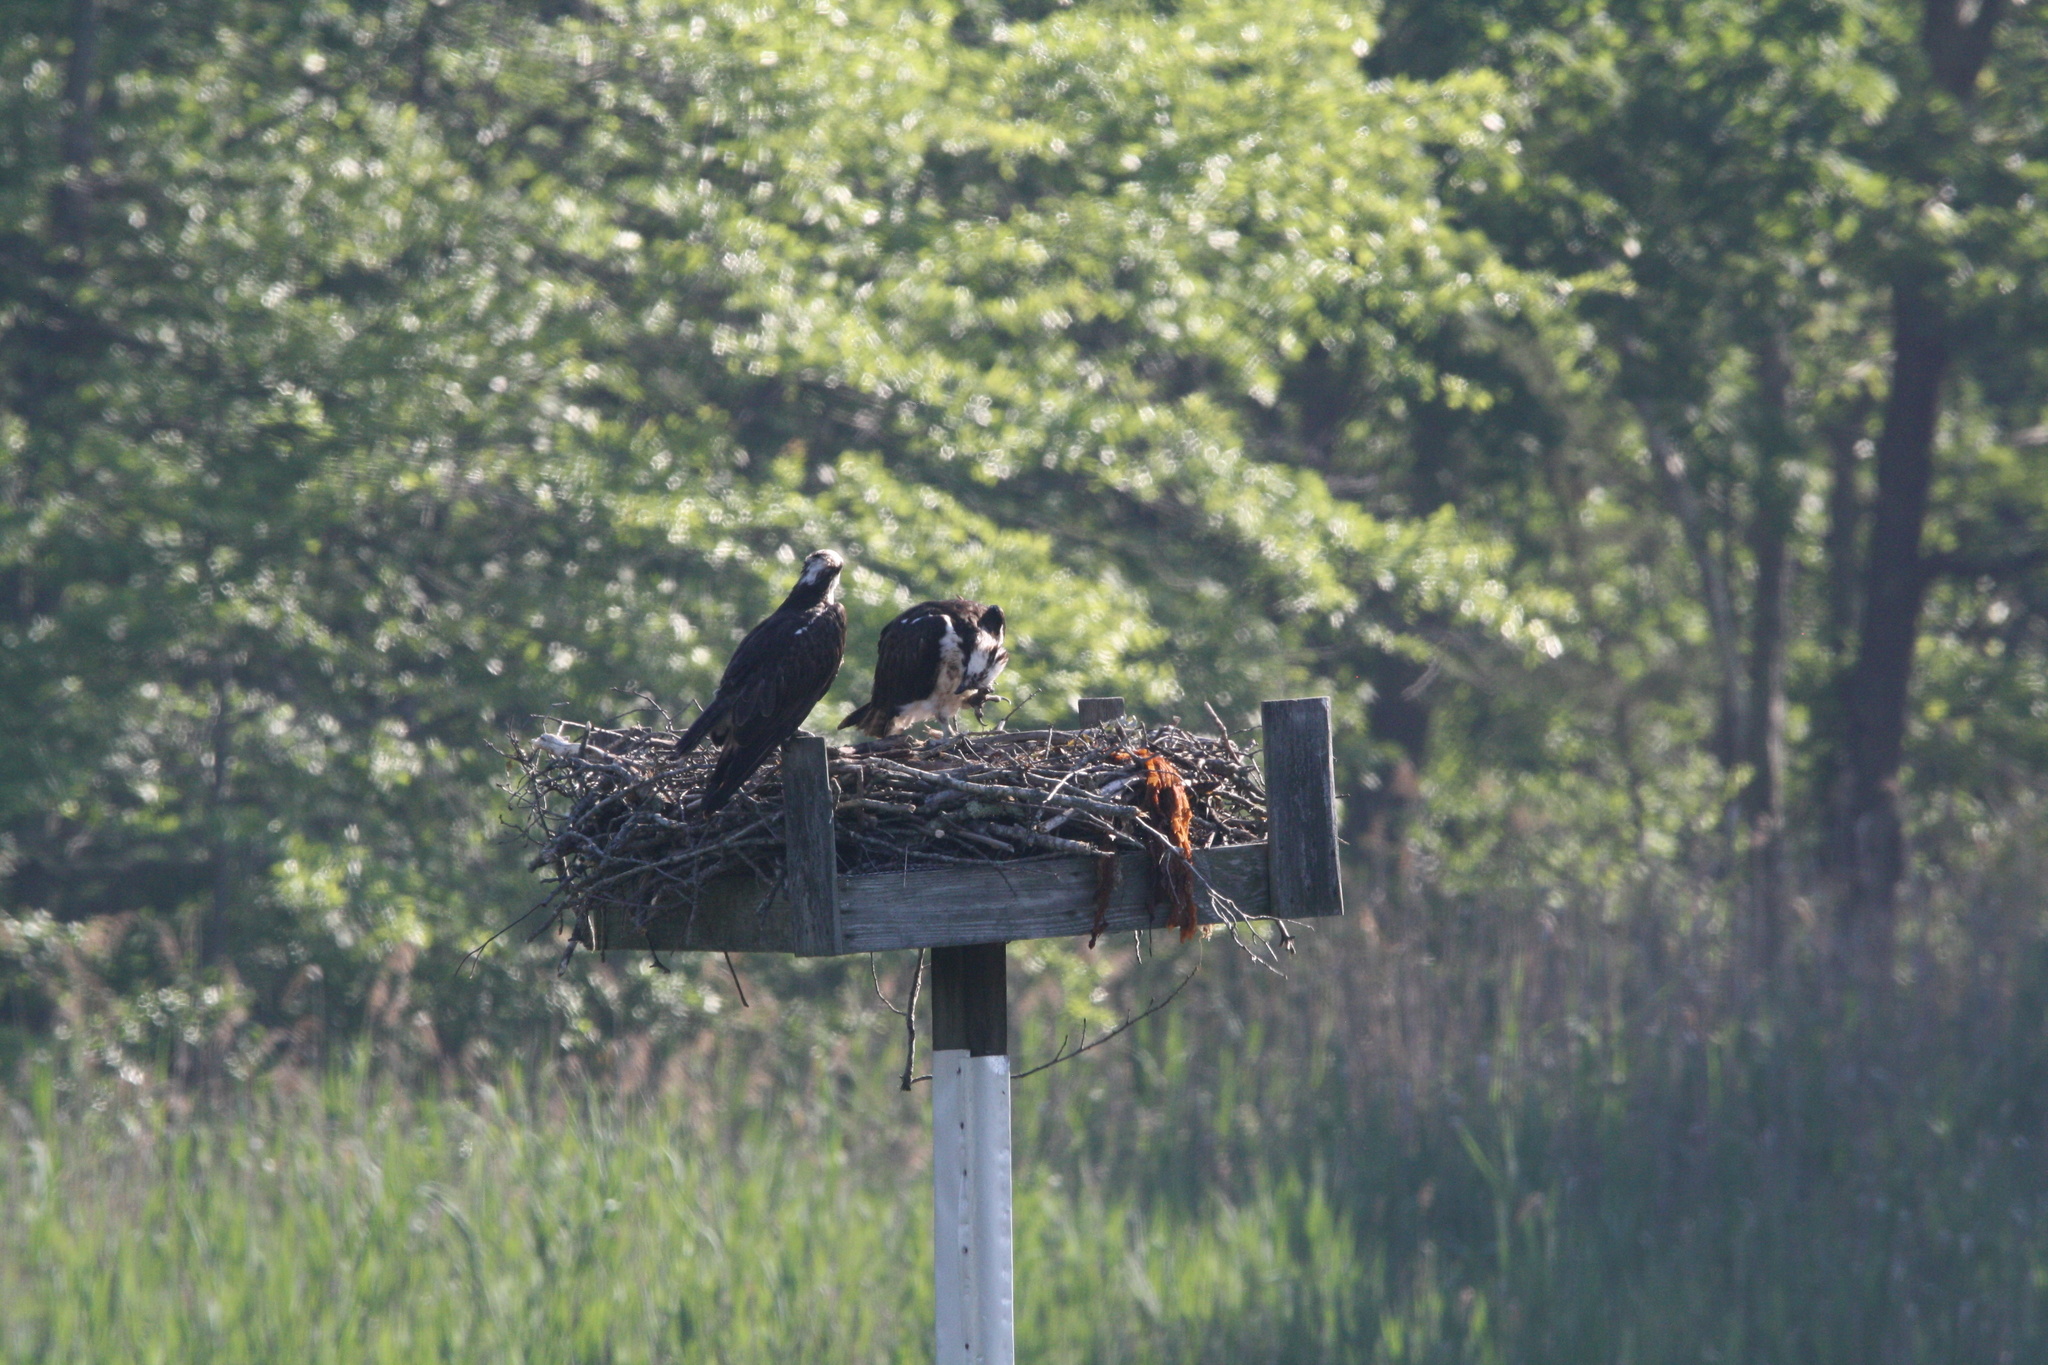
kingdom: Animalia
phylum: Chordata
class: Aves
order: Accipitriformes
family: Pandionidae
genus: Pandion
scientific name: Pandion haliaetus
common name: Osprey
